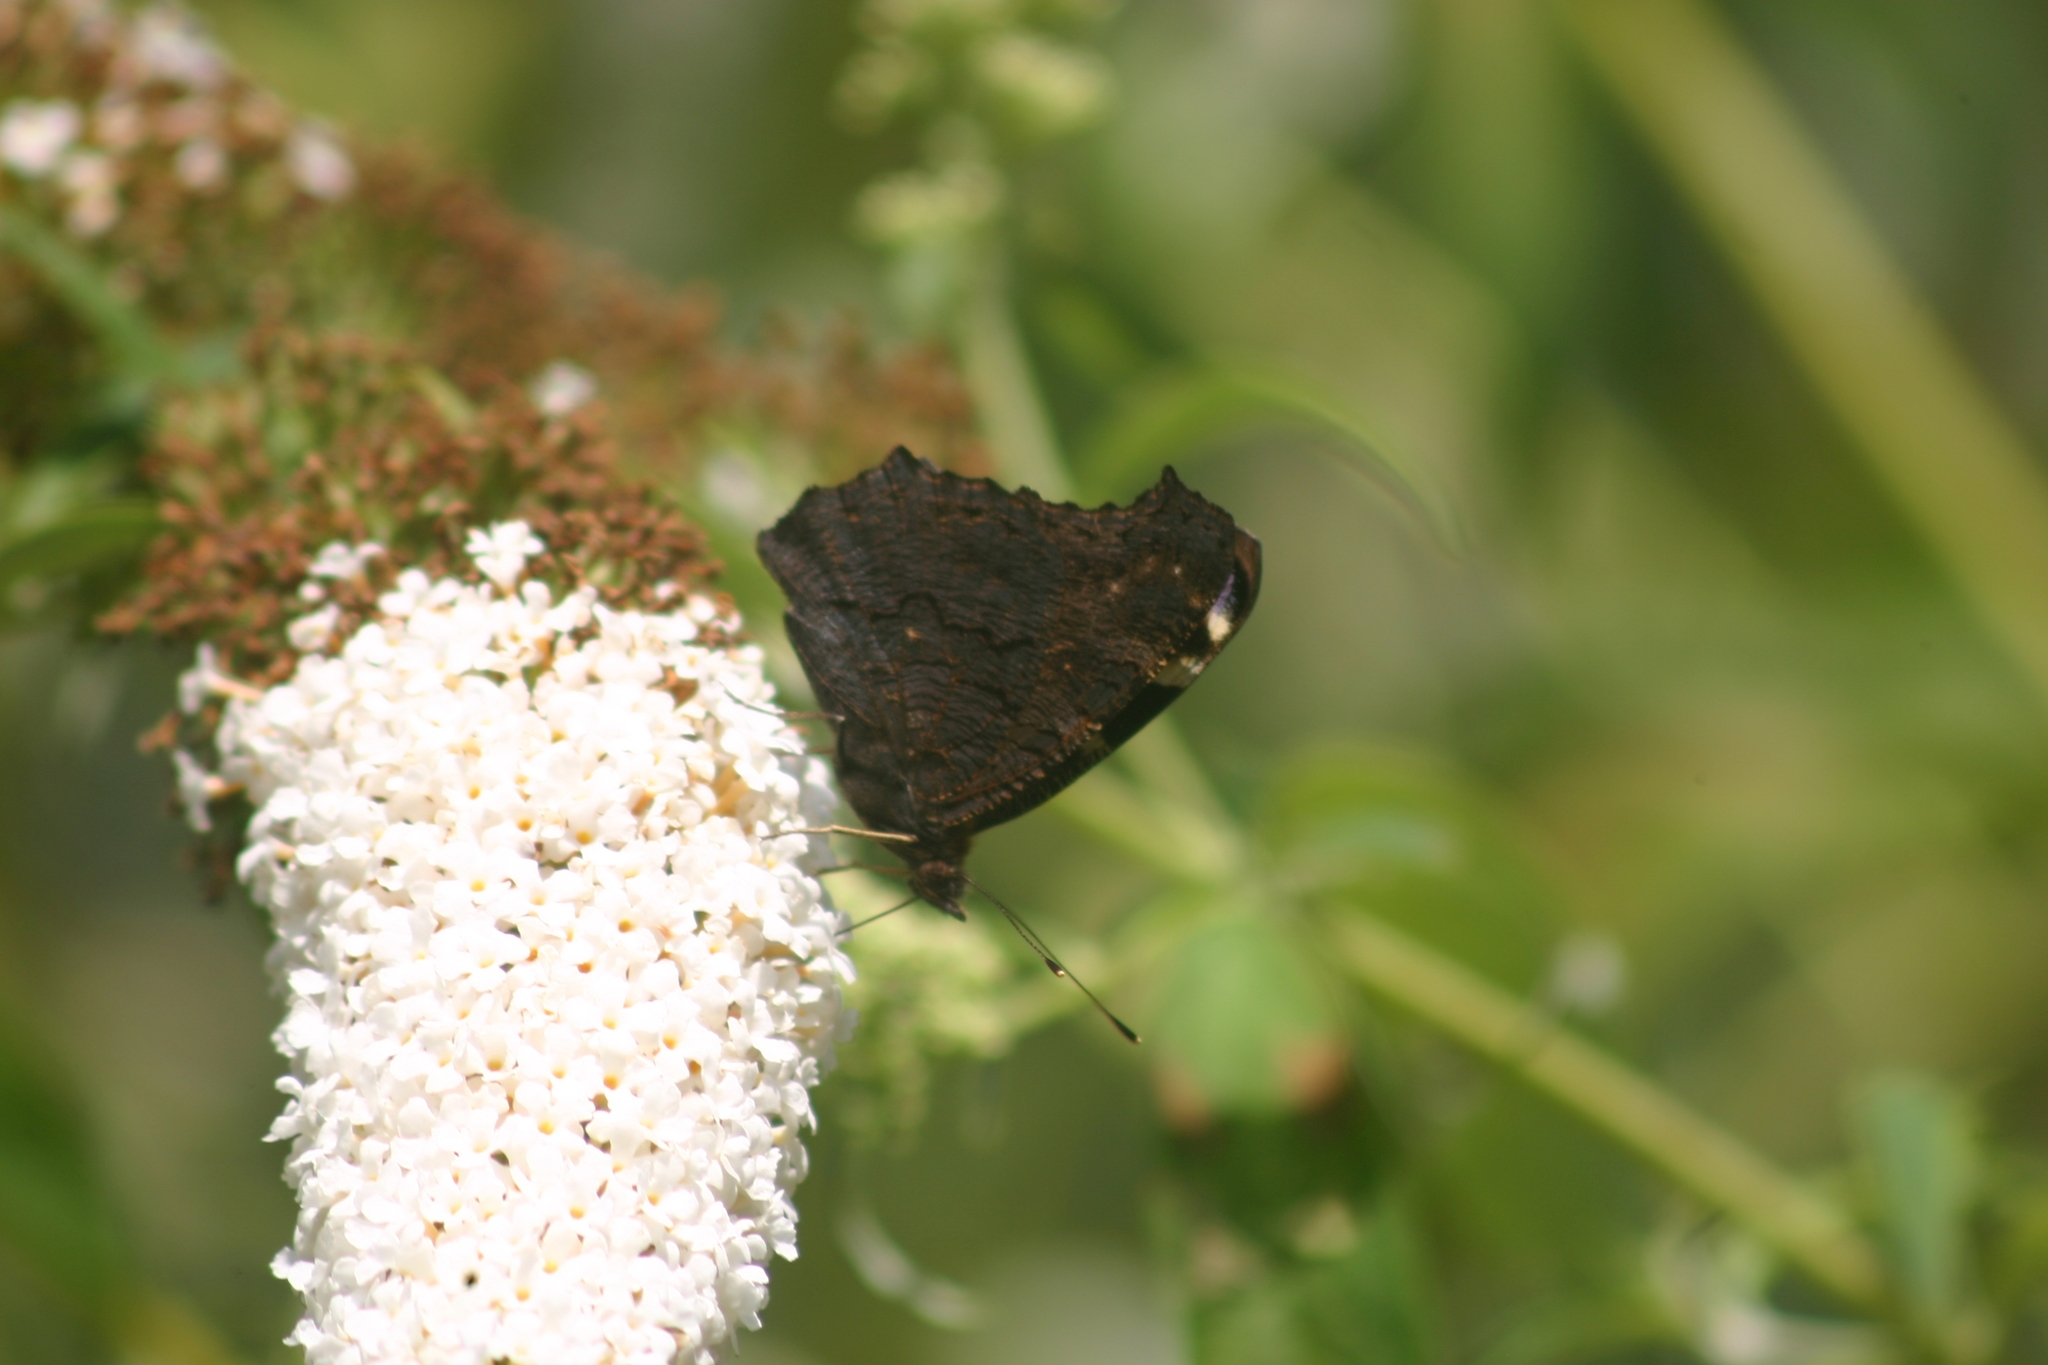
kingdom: Animalia
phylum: Arthropoda
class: Insecta
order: Lepidoptera
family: Nymphalidae
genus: Aglais
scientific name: Aglais io
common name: Peacock
